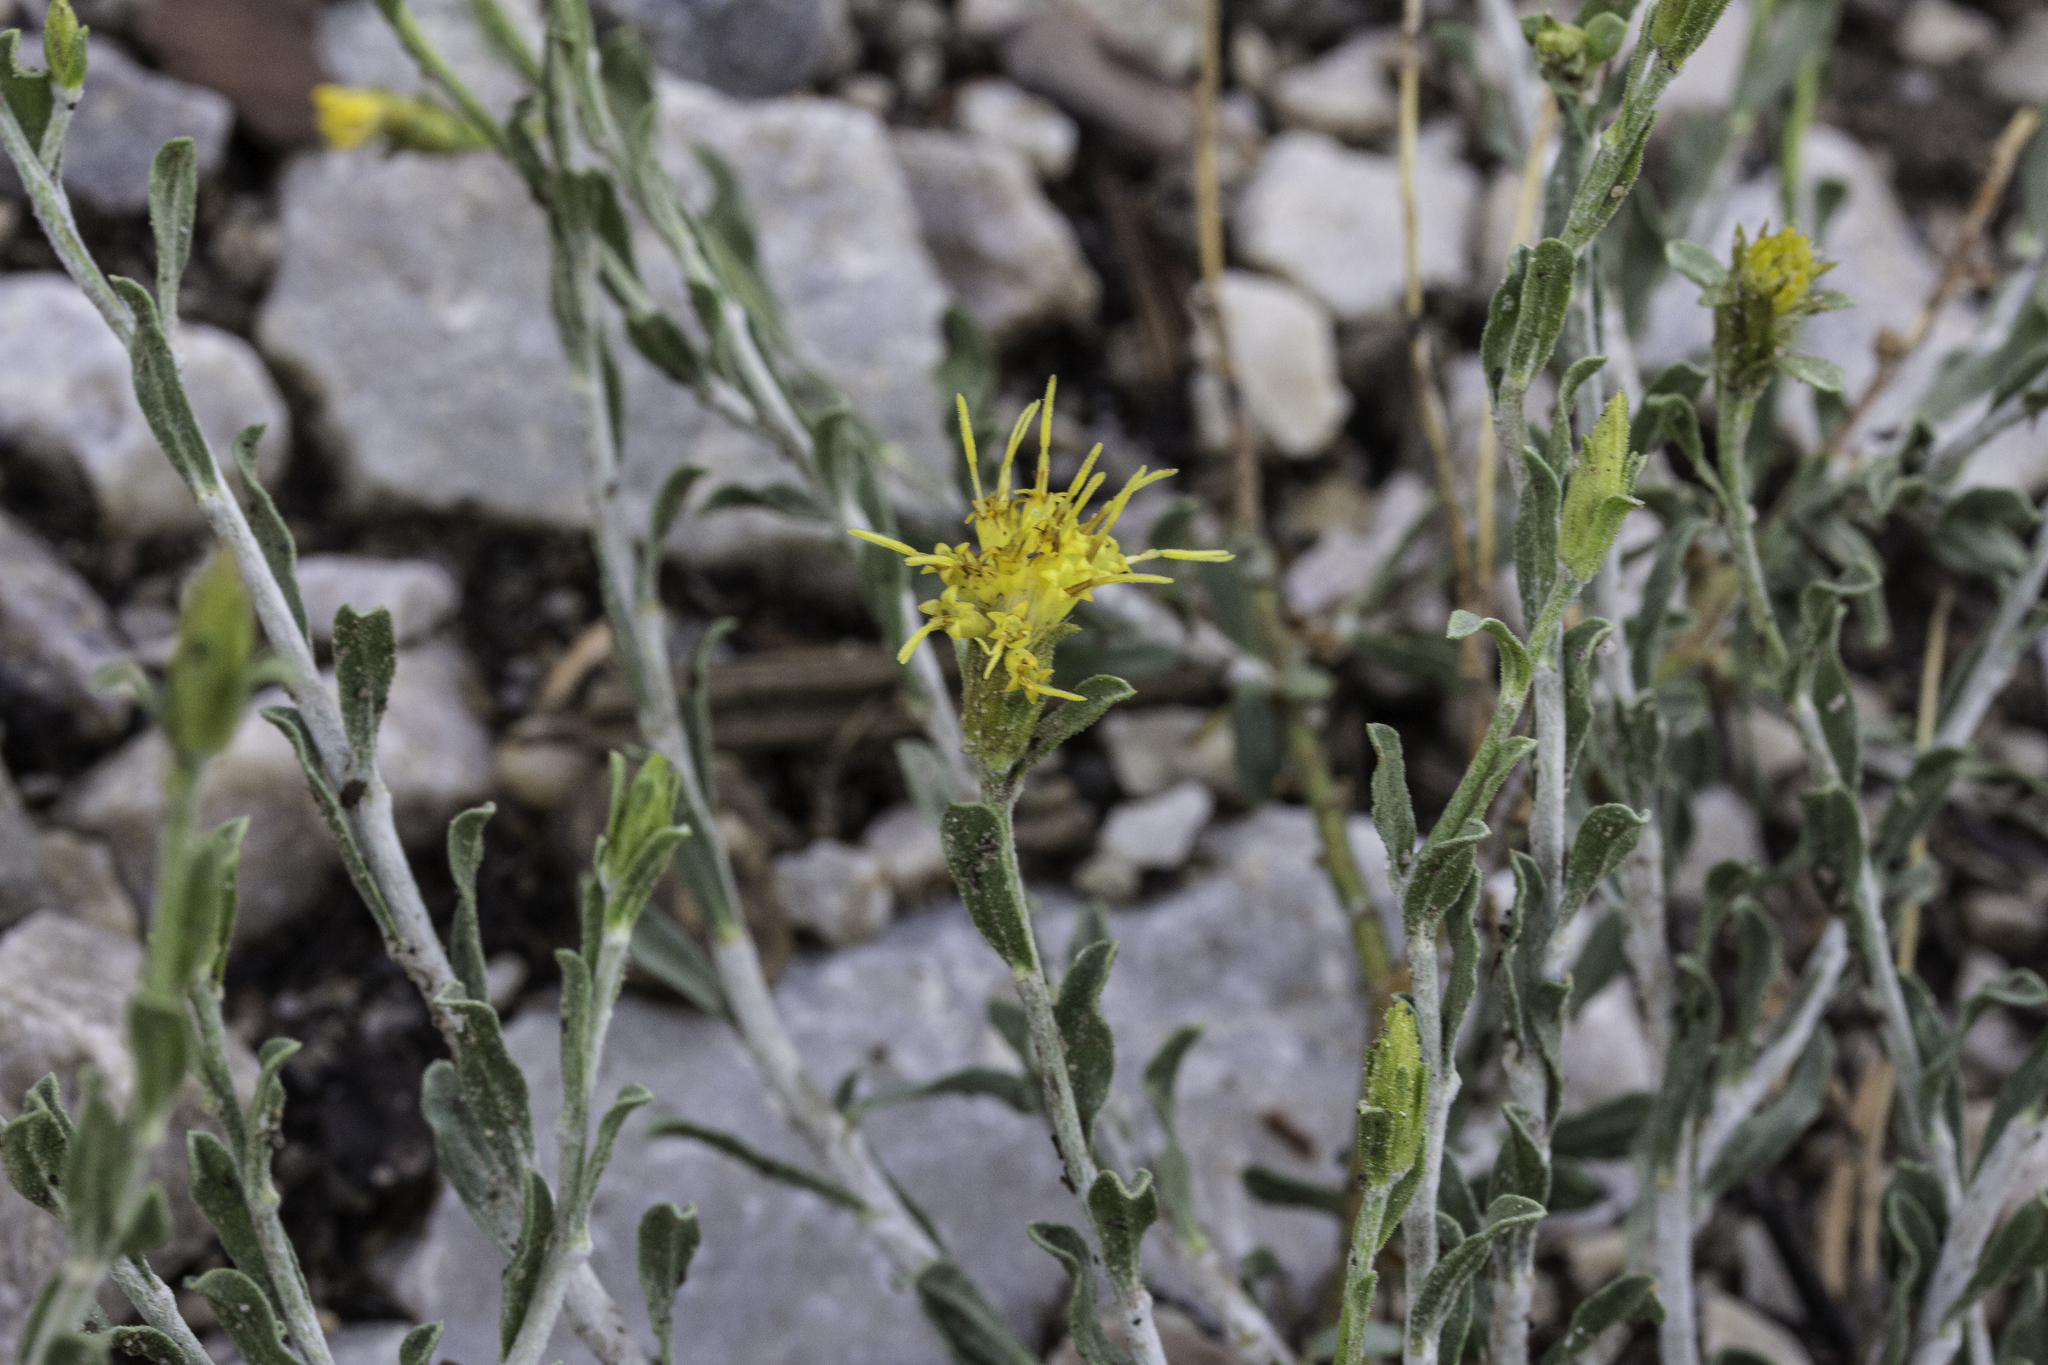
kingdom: Plantae
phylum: Tracheophyta
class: Magnoliopsida
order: Asterales
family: Asteraceae
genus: Ericameria
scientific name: Ericameria discoidea
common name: Sharp-scale goldenweed
